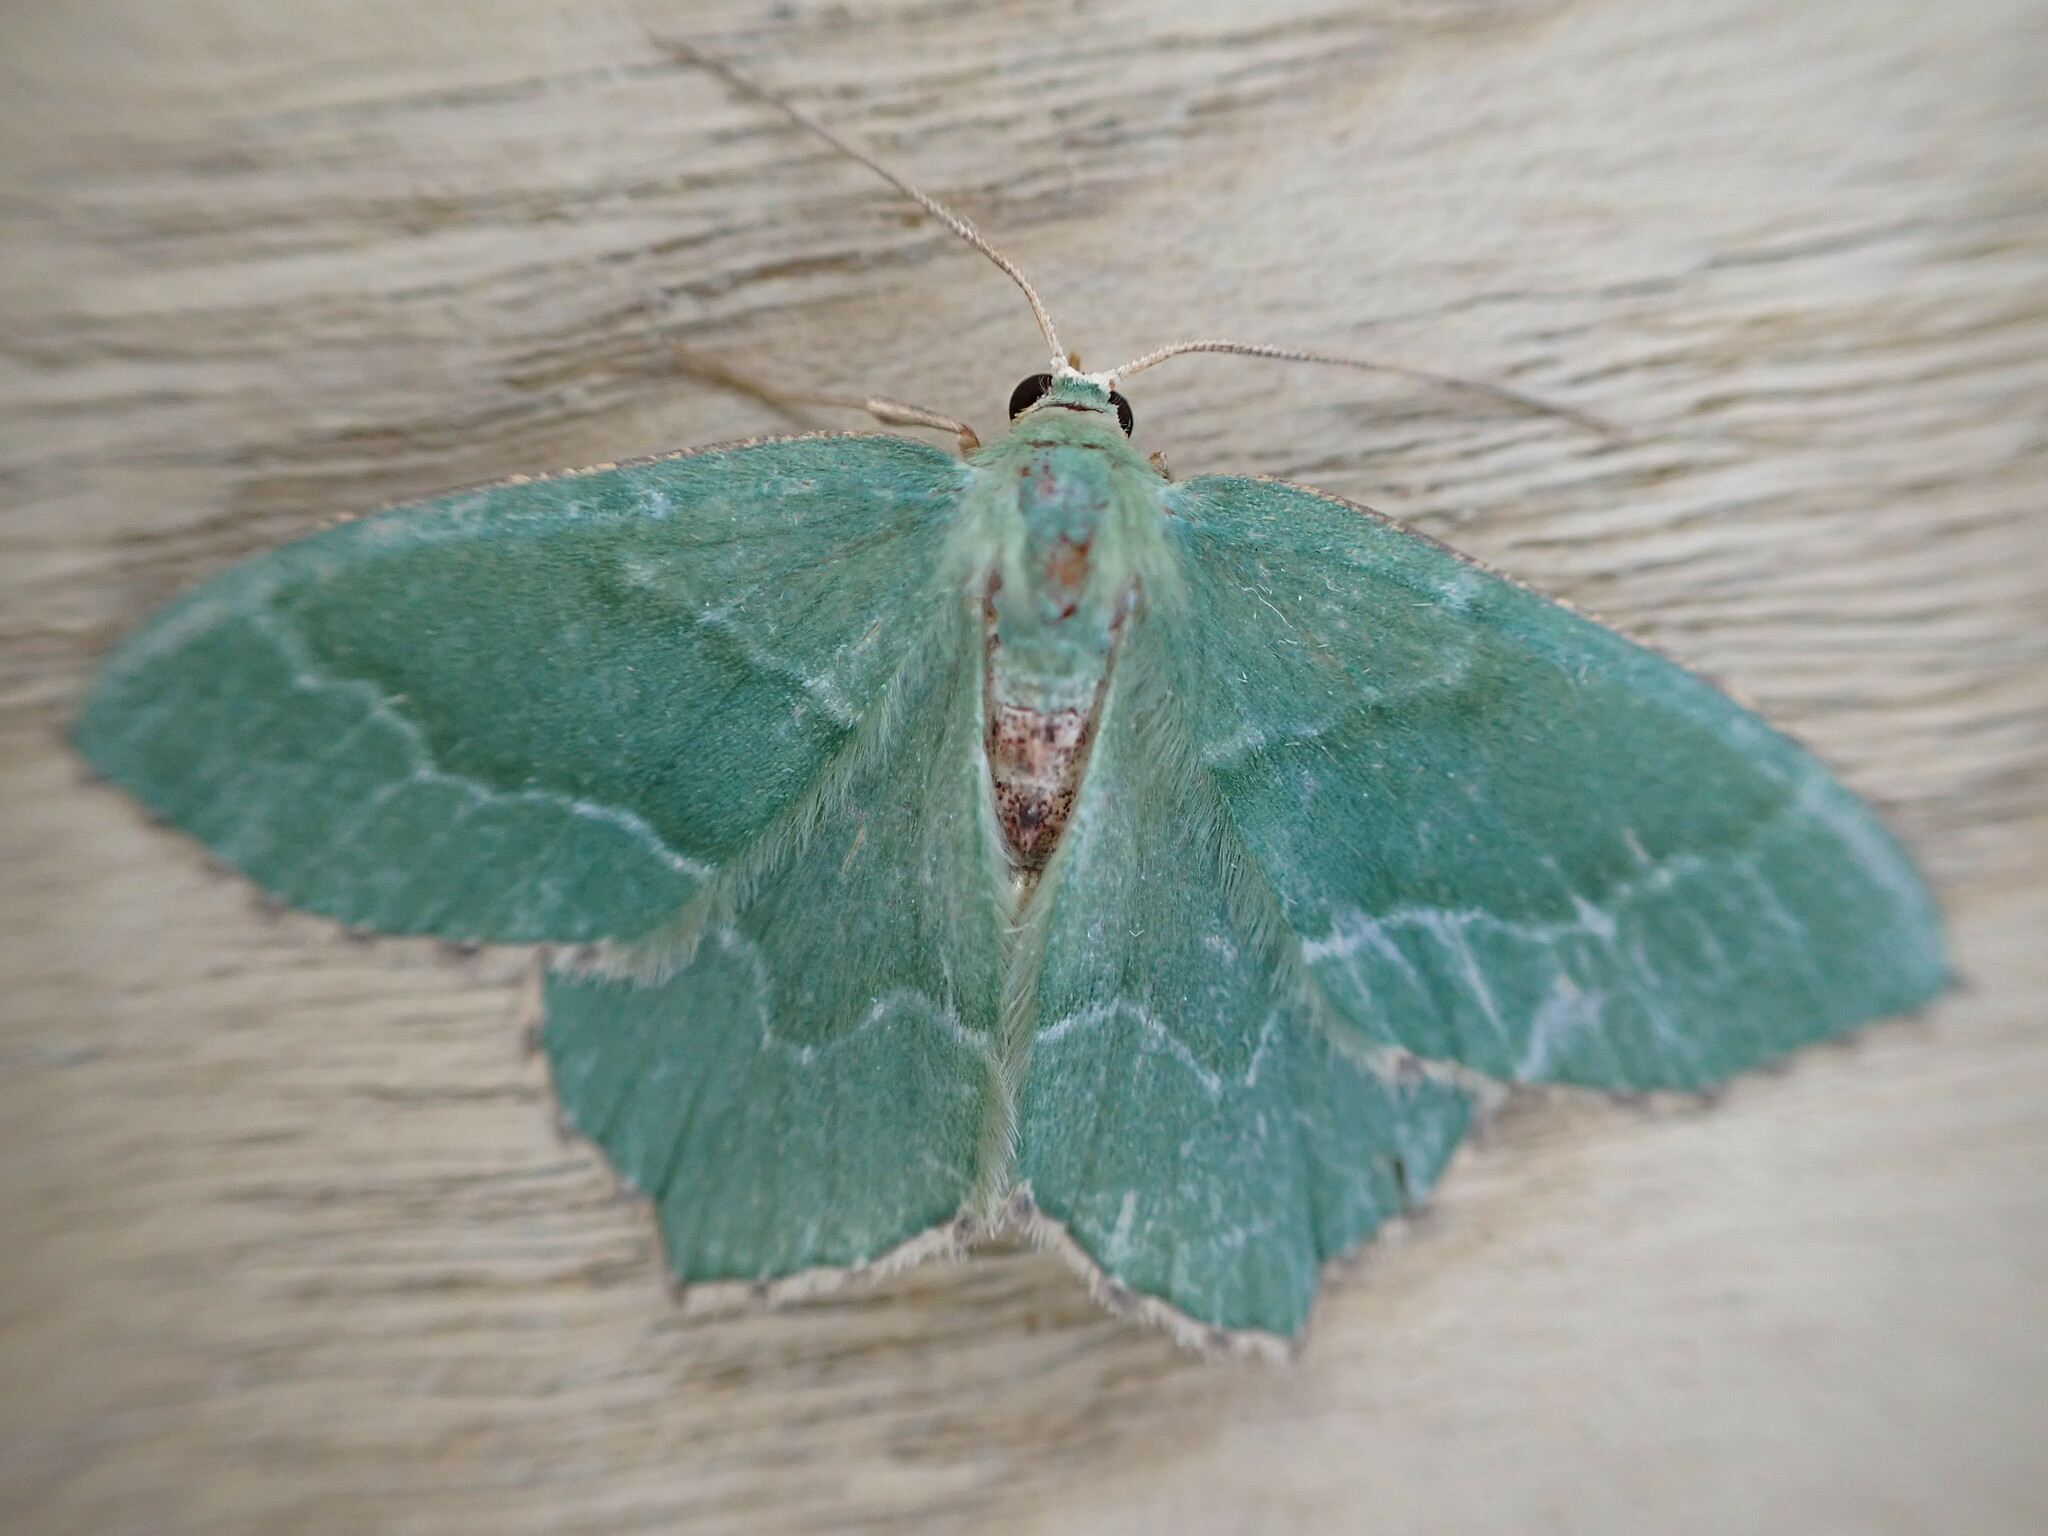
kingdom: Animalia
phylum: Arthropoda
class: Insecta
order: Lepidoptera
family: Geometridae
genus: Hemithea
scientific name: Hemithea aestivaria
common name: Common emerald
